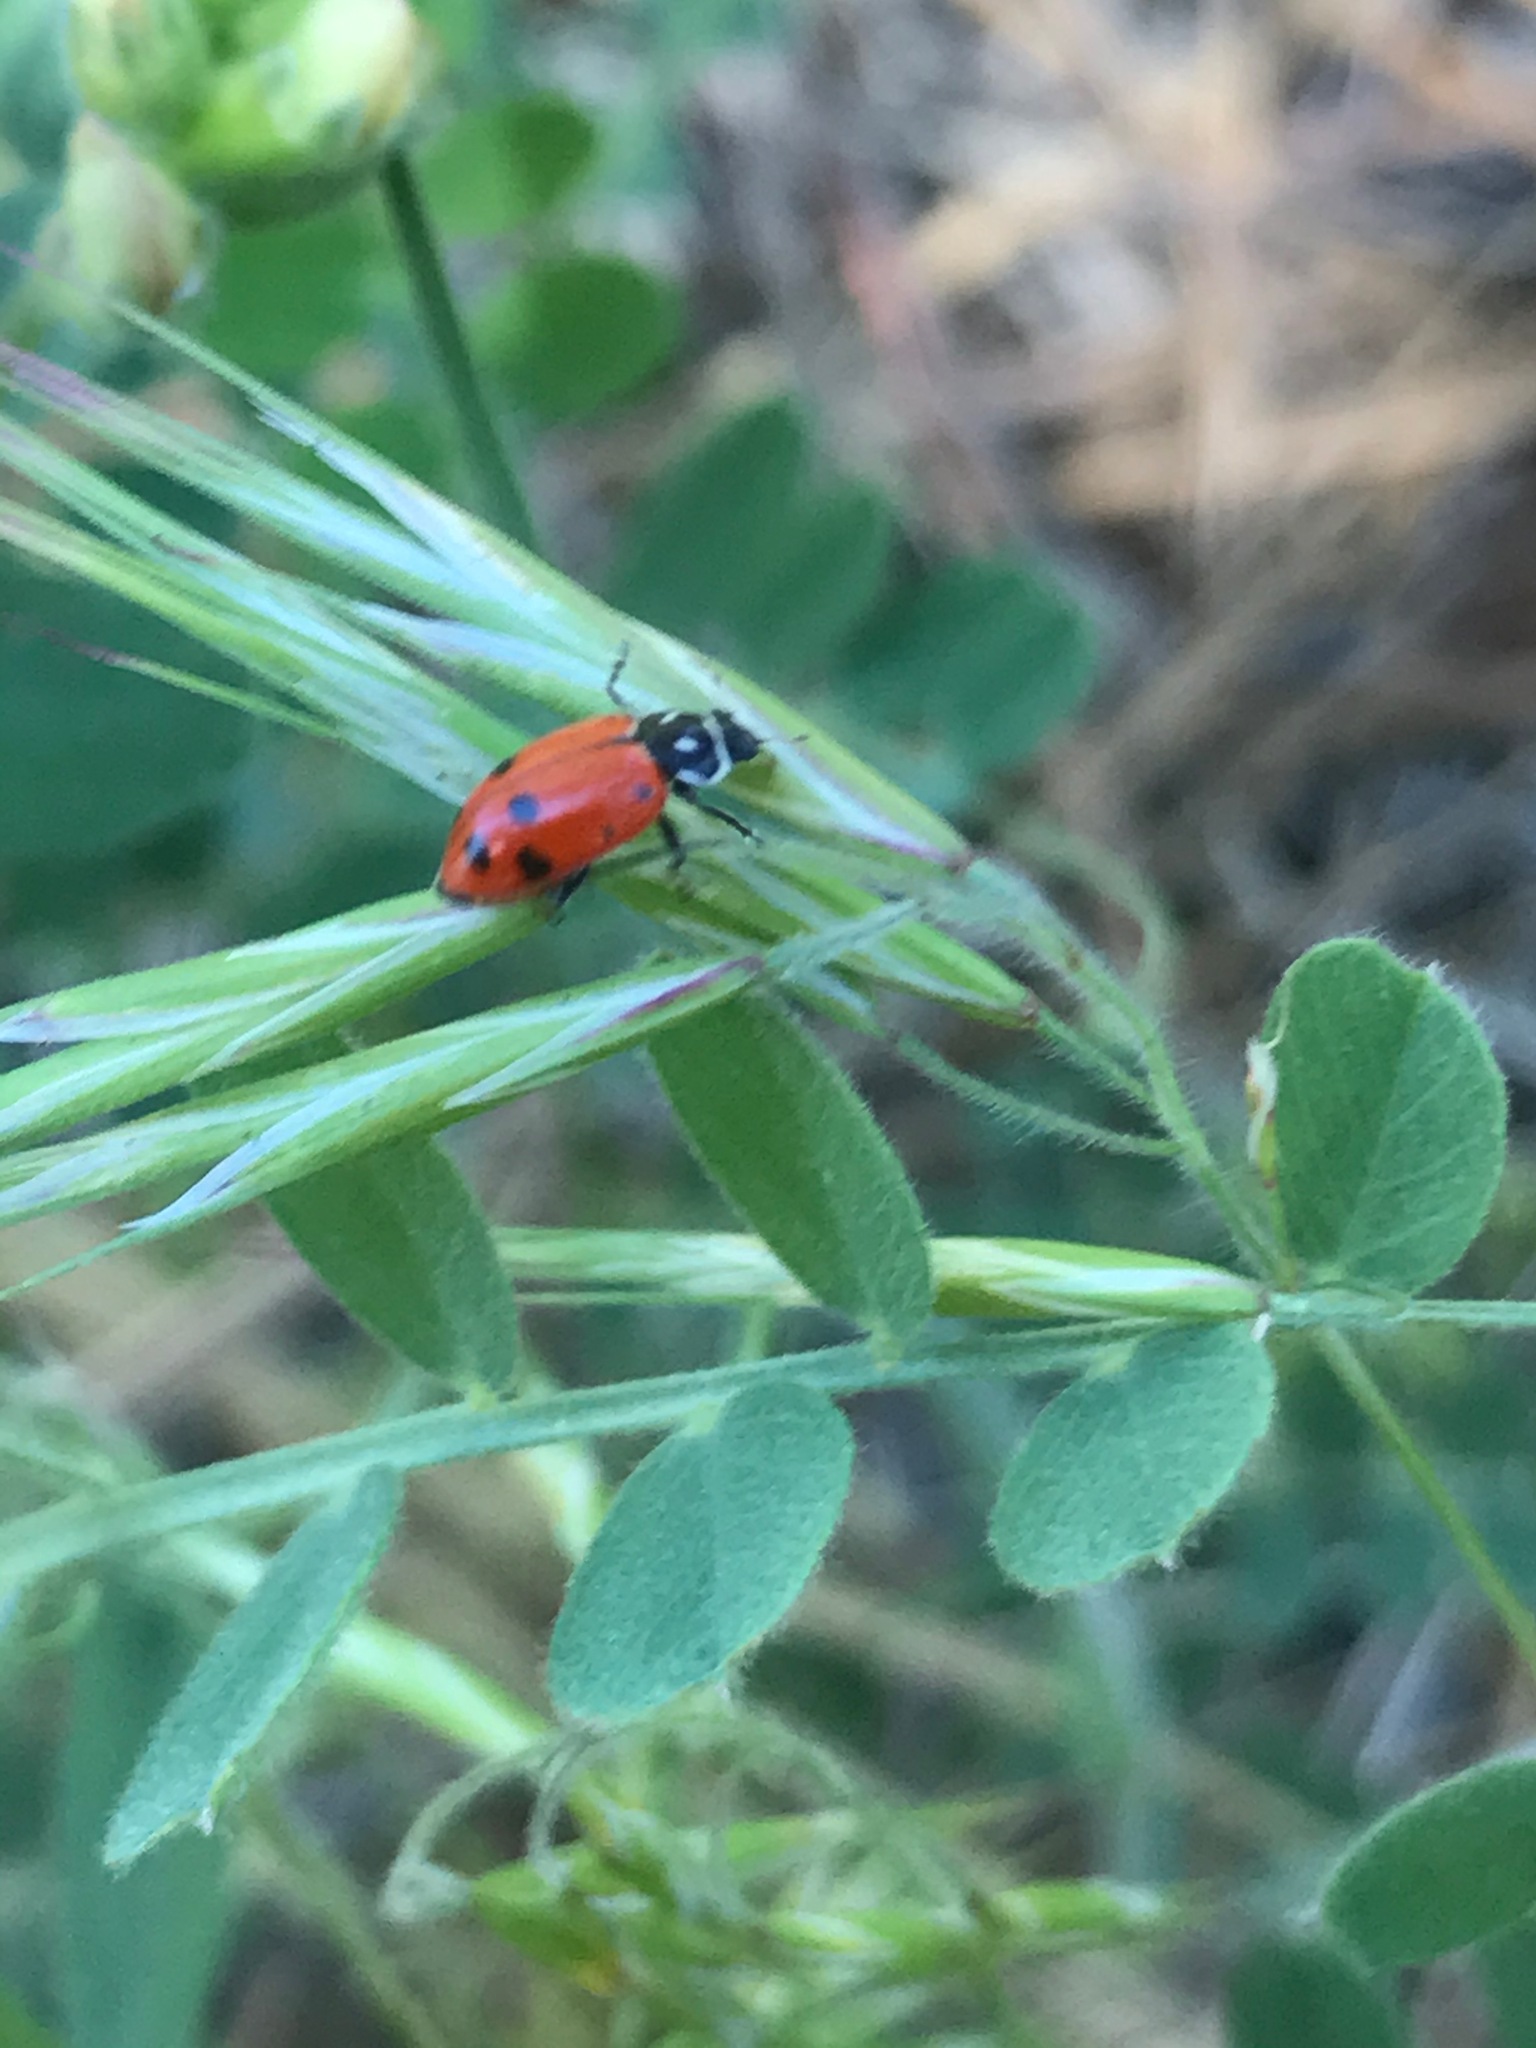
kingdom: Animalia
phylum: Arthropoda
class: Insecta
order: Coleoptera
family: Coccinellidae
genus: Hippodamia
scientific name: Hippodamia convergens
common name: Convergent lady beetle
